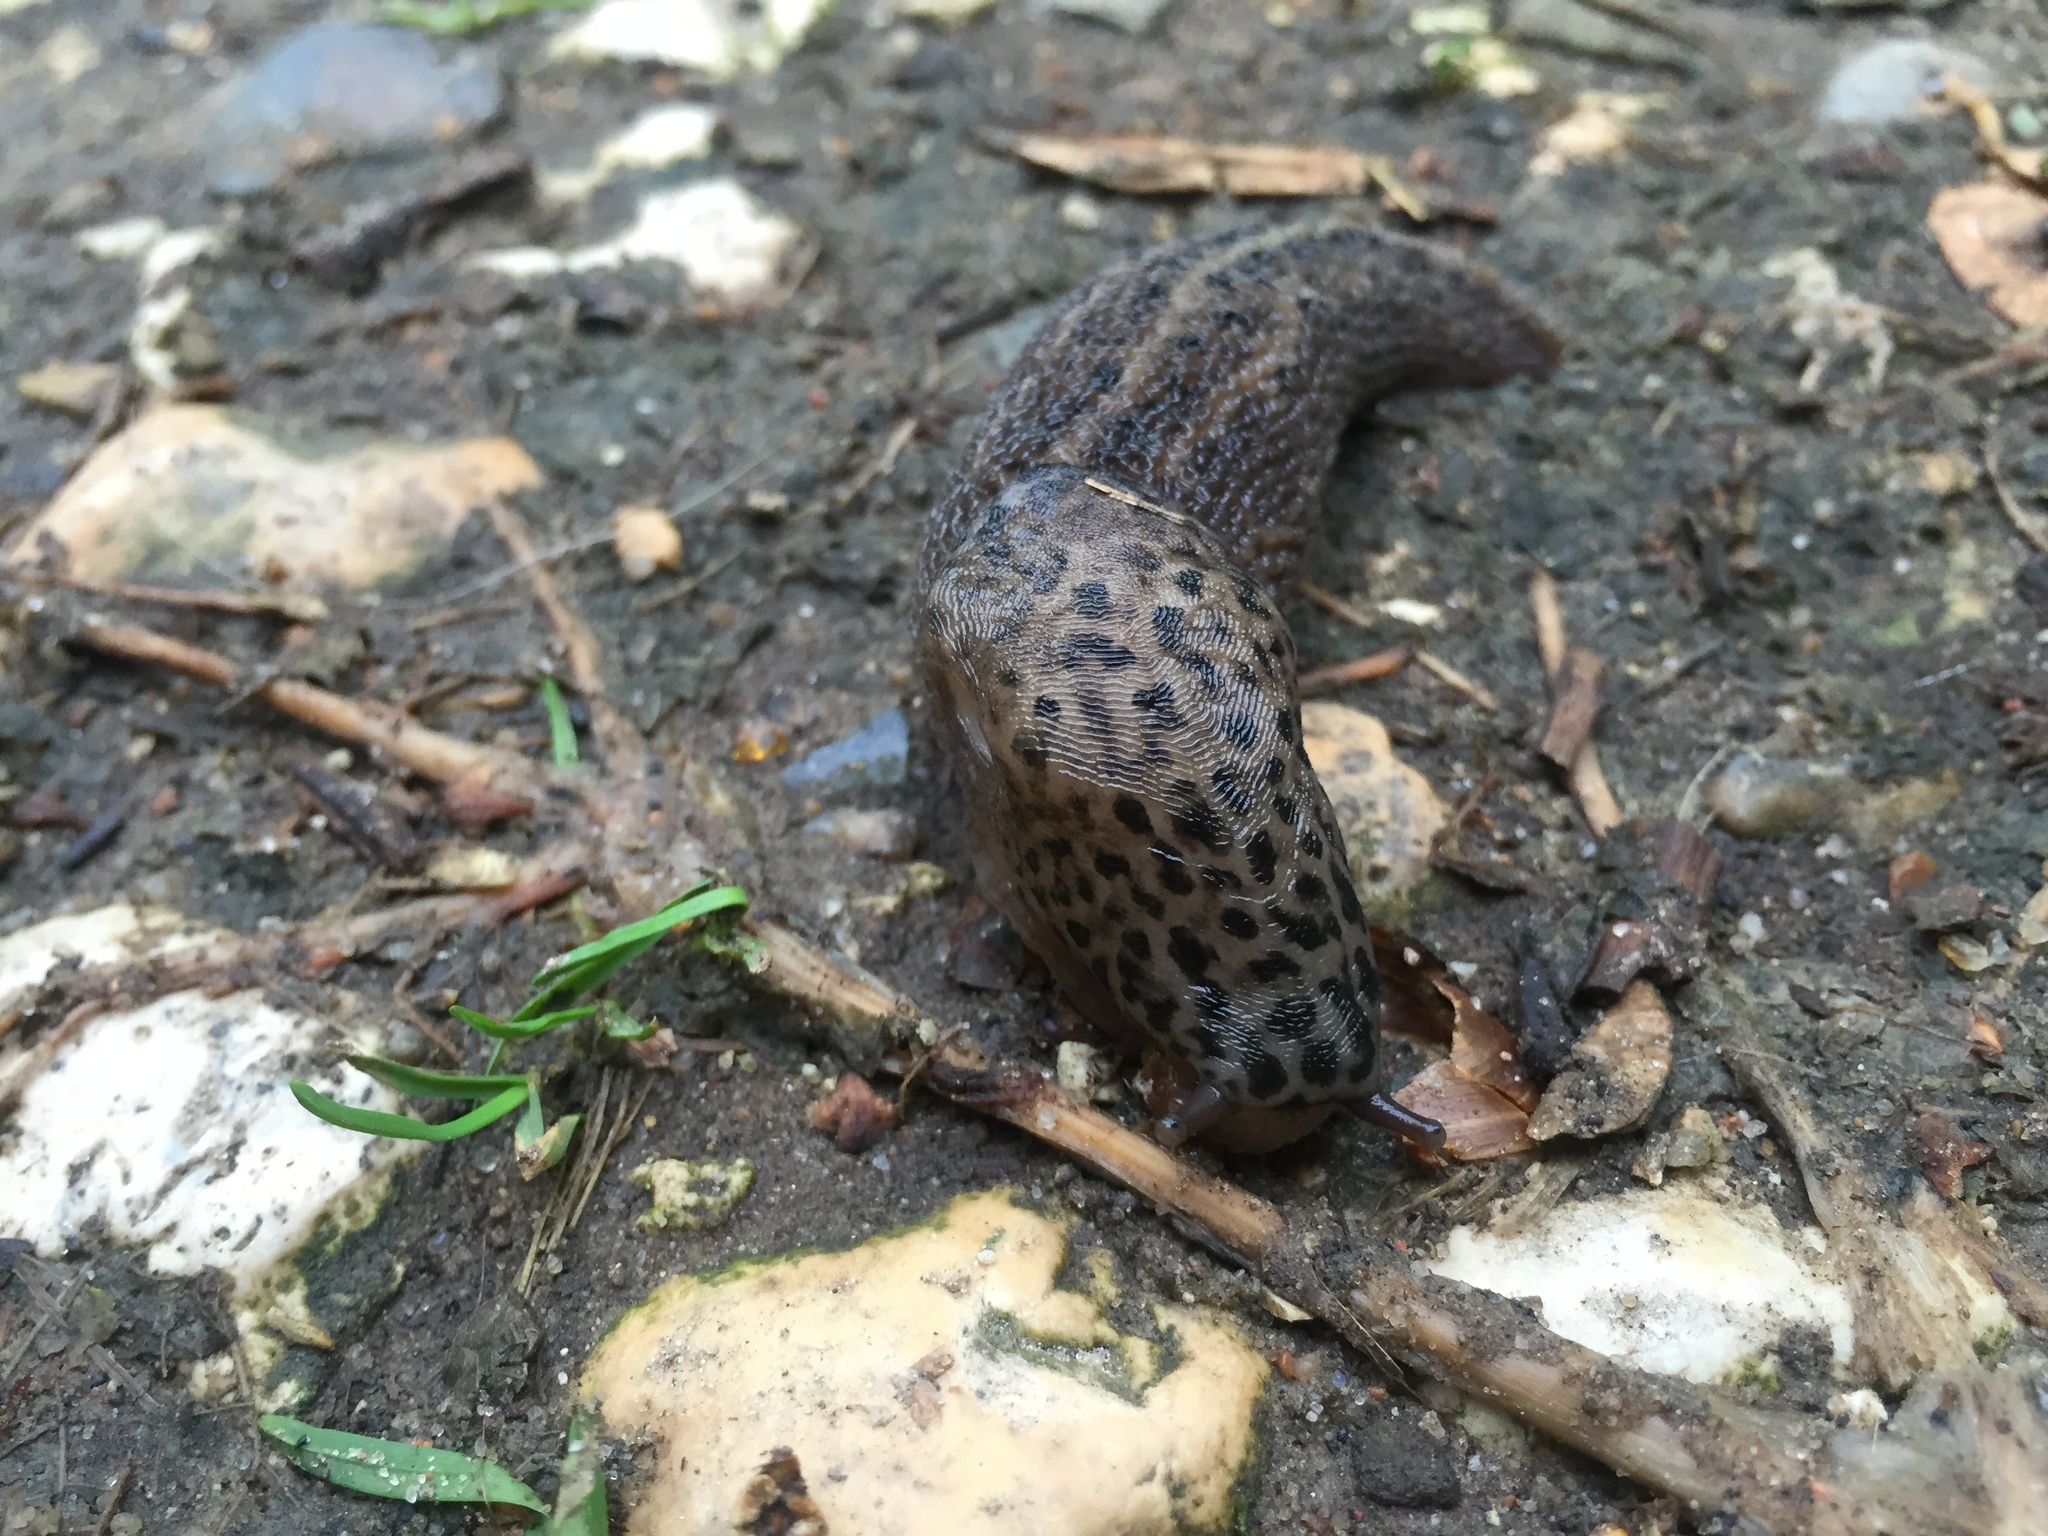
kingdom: Animalia
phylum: Mollusca
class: Gastropoda
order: Stylommatophora
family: Limacidae
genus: Limax
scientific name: Limax maximus
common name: Great grey slug
